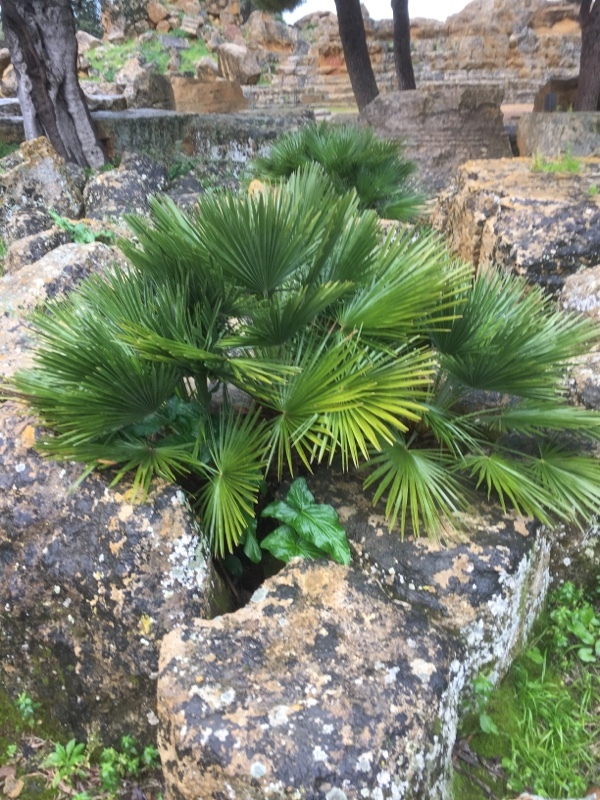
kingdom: Plantae
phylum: Tracheophyta
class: Liliopsida
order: Arecales
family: Arecaceae
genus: Chamaerops
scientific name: Chamaerops humilis
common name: Dwarf fan palm
